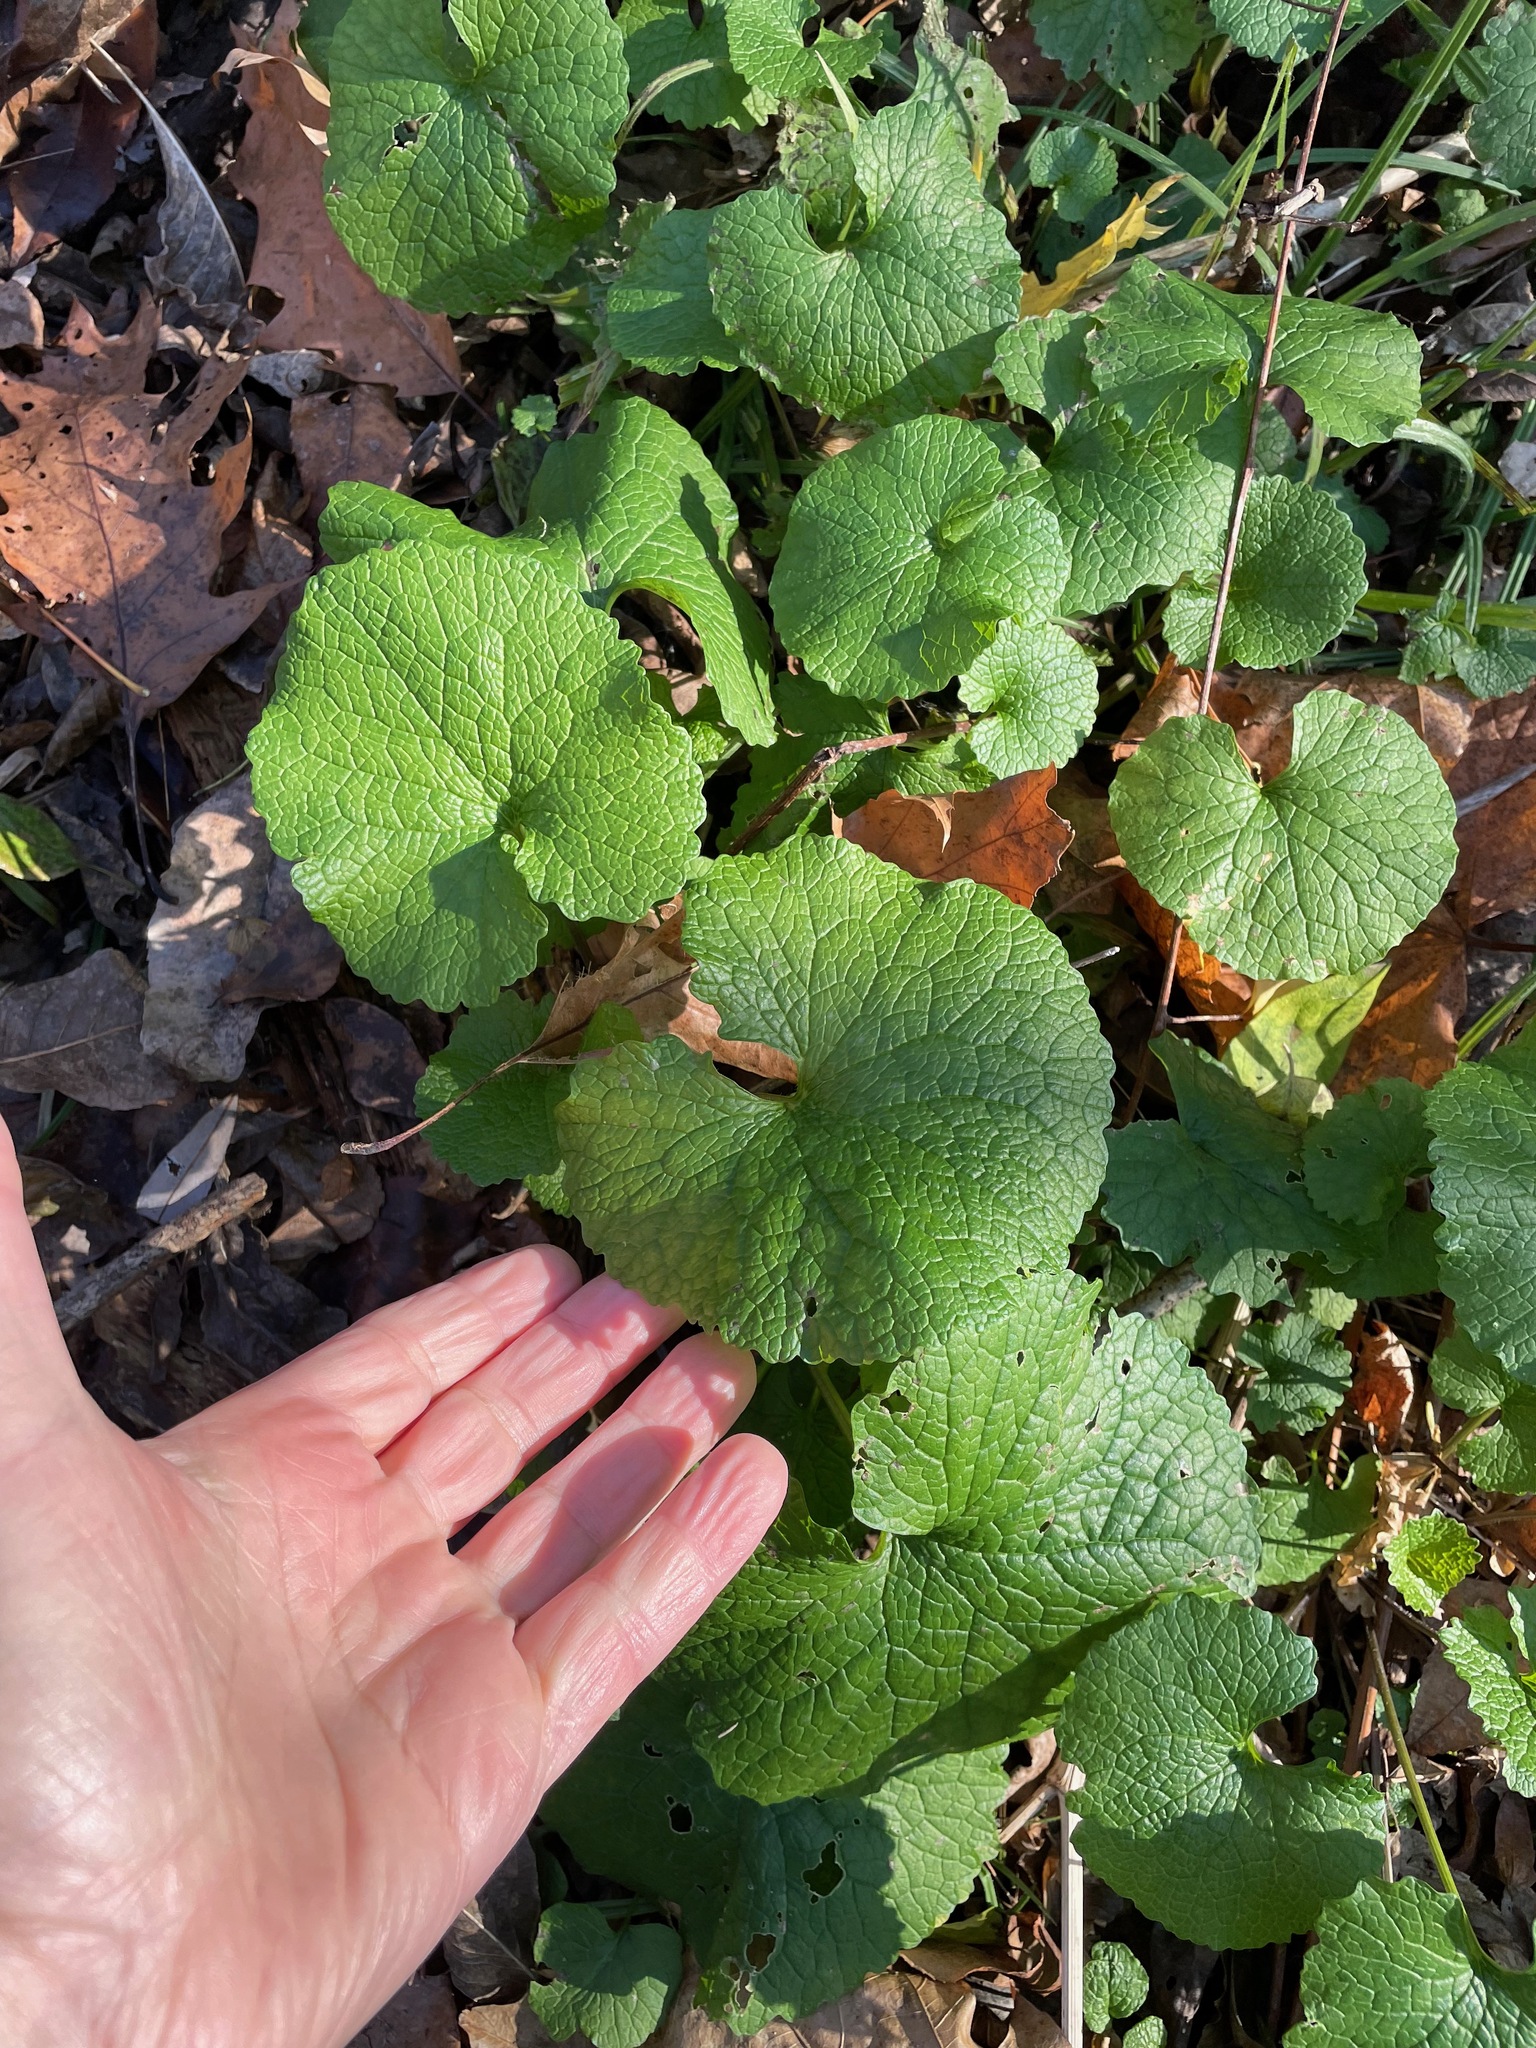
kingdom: Plantae
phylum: Tracheophyta
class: Magnoliopsida
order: Brassicales
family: Brassicaceae
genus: Alliaria
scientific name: Alliaria petiolata
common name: Garlic mustard
